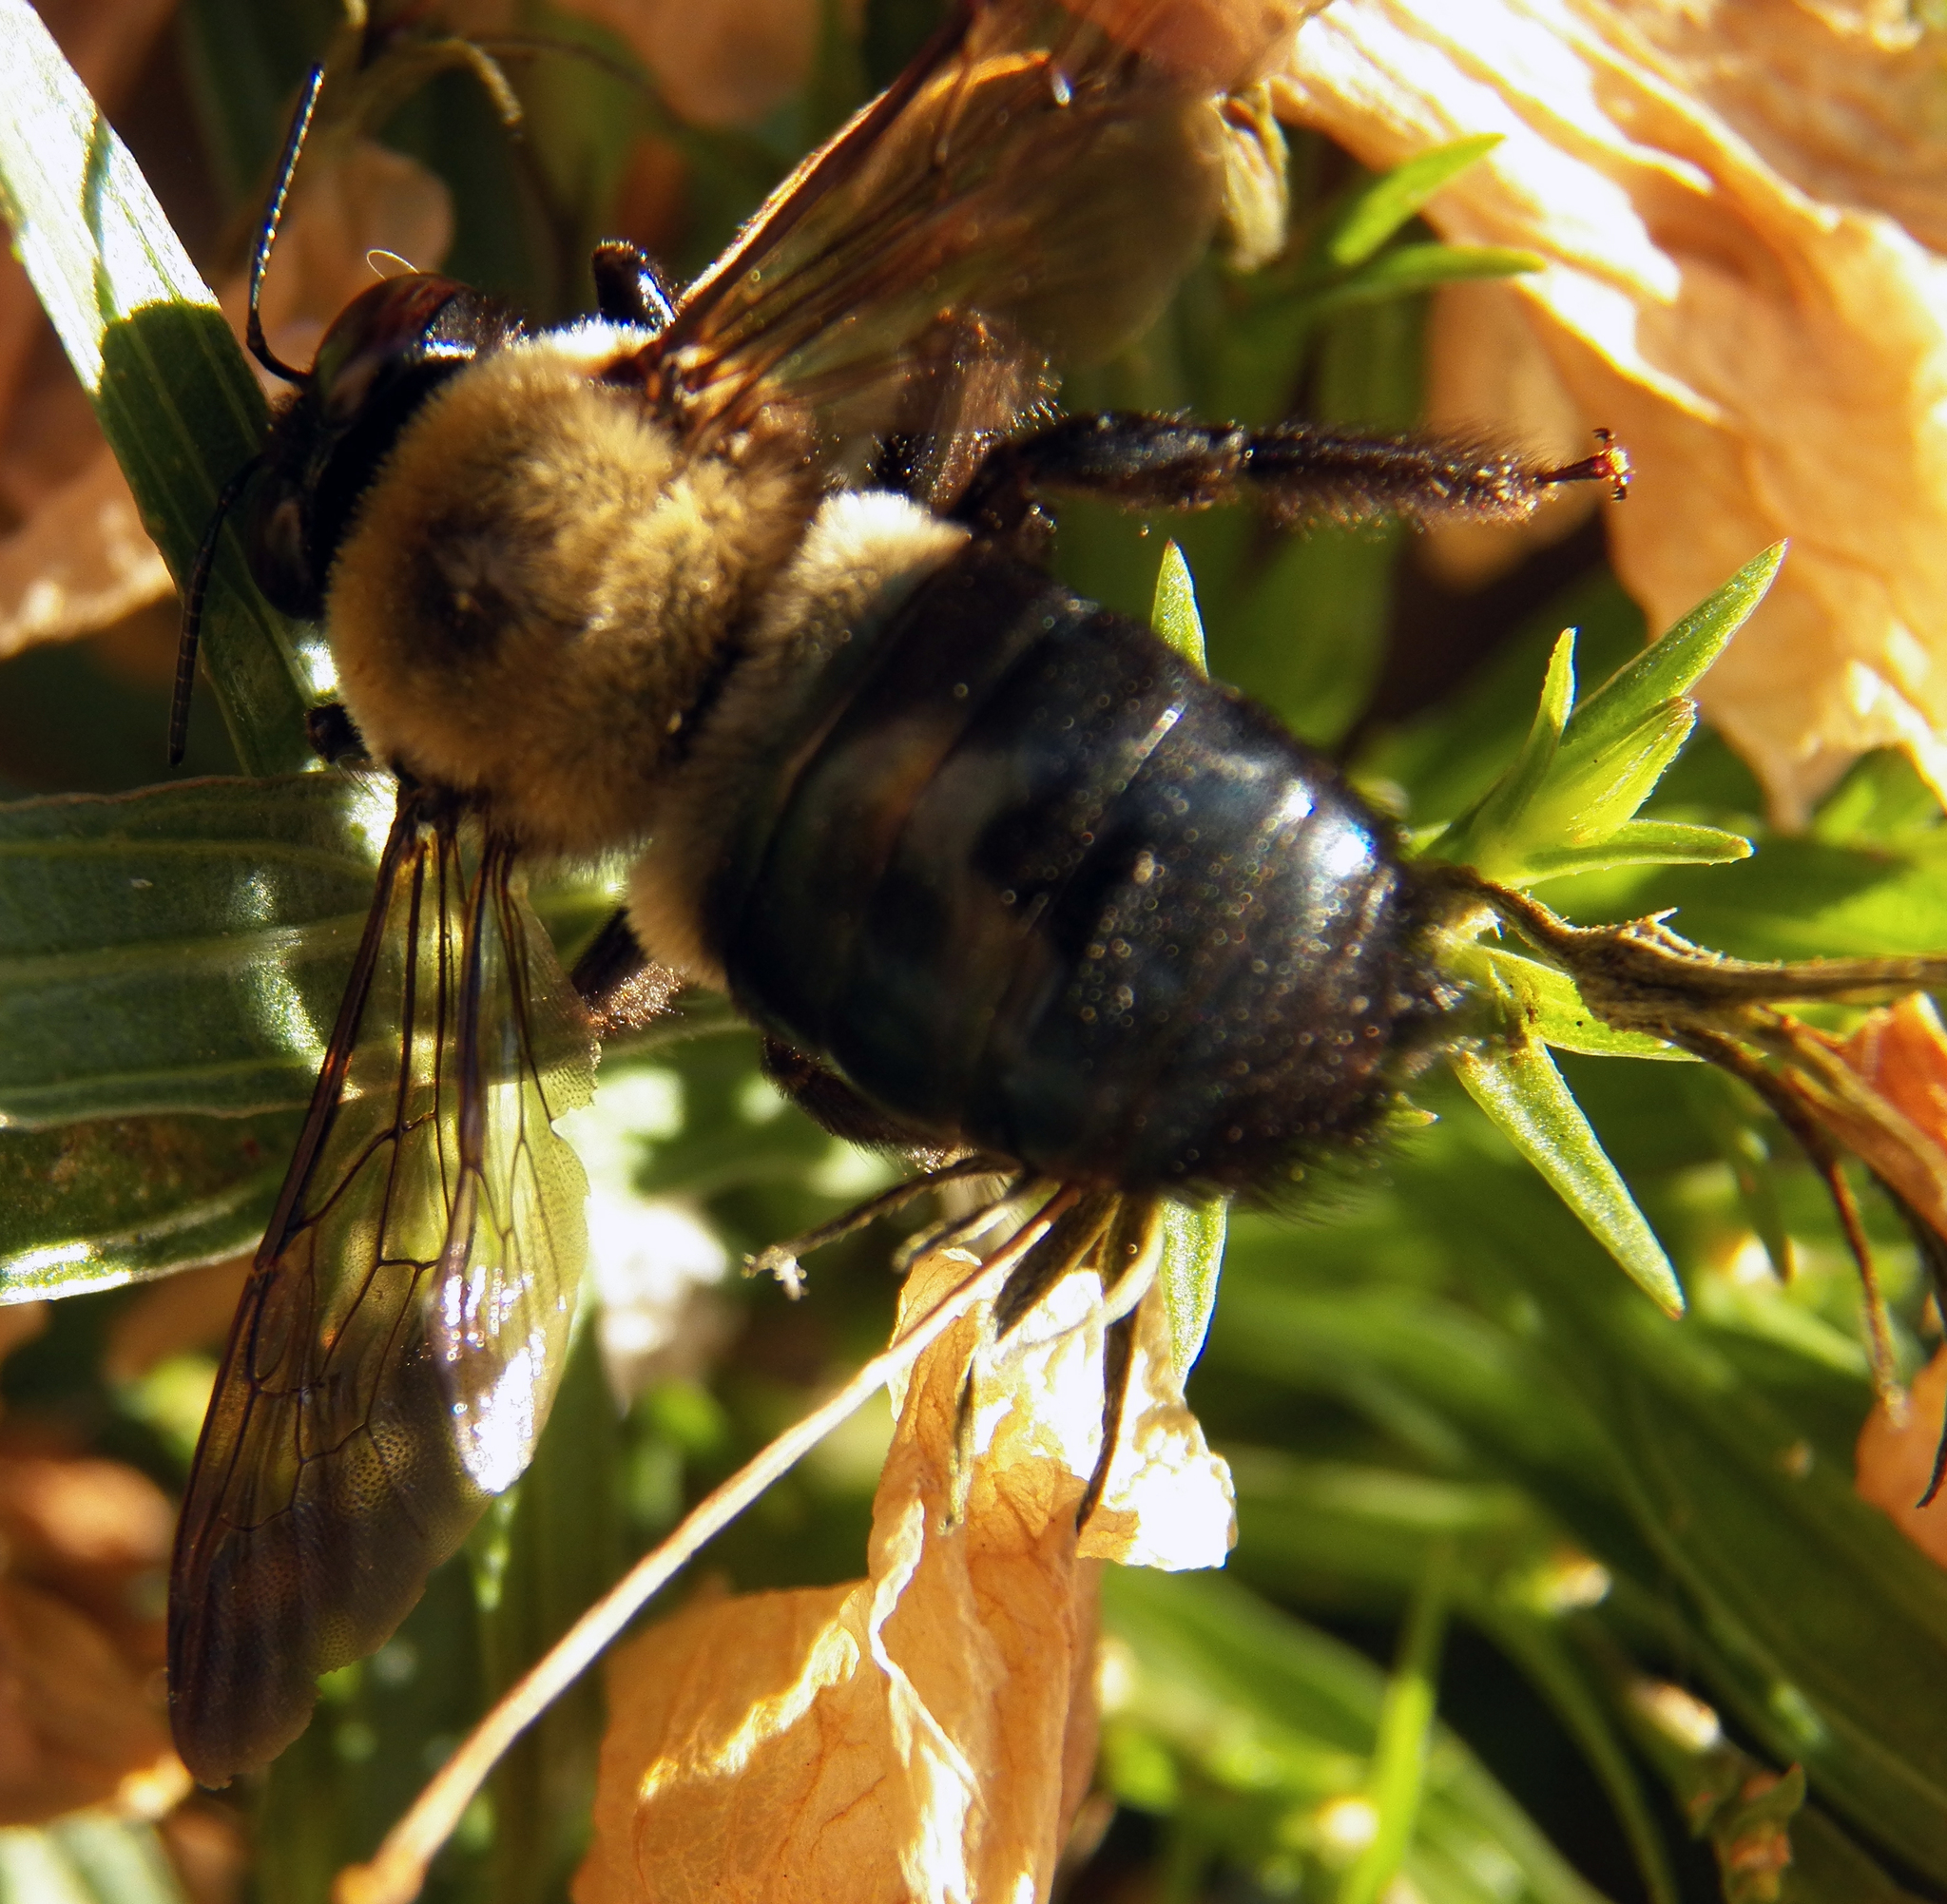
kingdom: Animalia
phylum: Arthropoda
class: Insecta
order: Hymenoptera
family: Apidae
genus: Xylocopa
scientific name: Xylocopa virginica
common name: Carpenter bee
